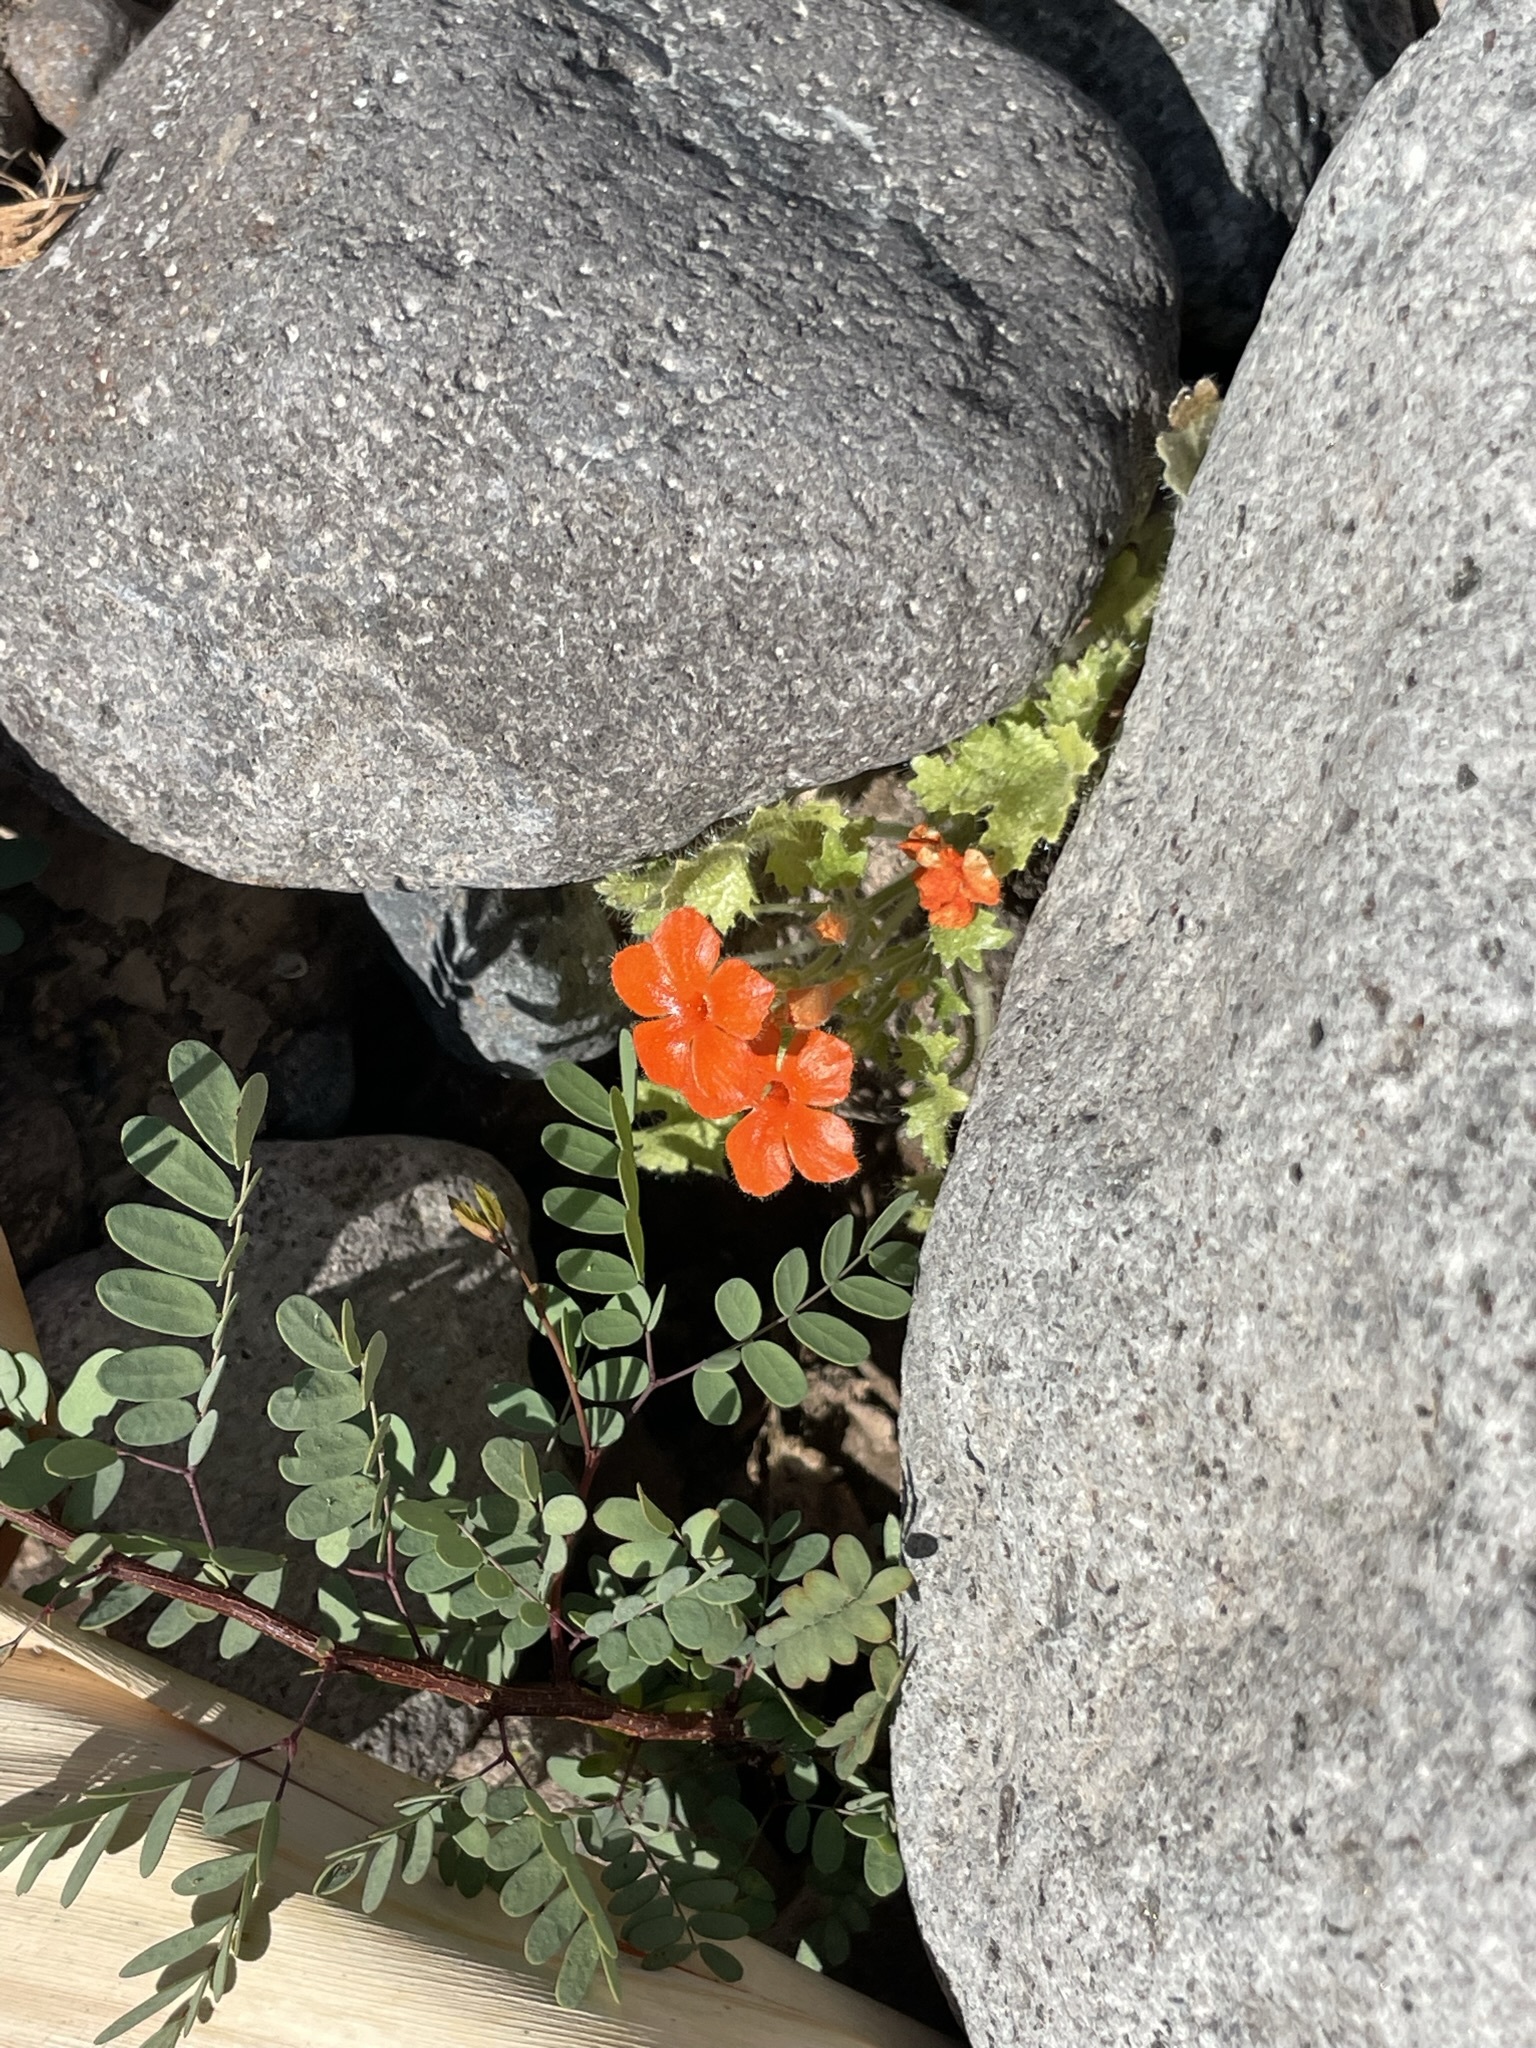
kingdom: Plantae
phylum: Tracheophyta
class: Magnoliopsida
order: Cornales
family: Loasaceae
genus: Eucnide
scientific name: Eucnide aurea
